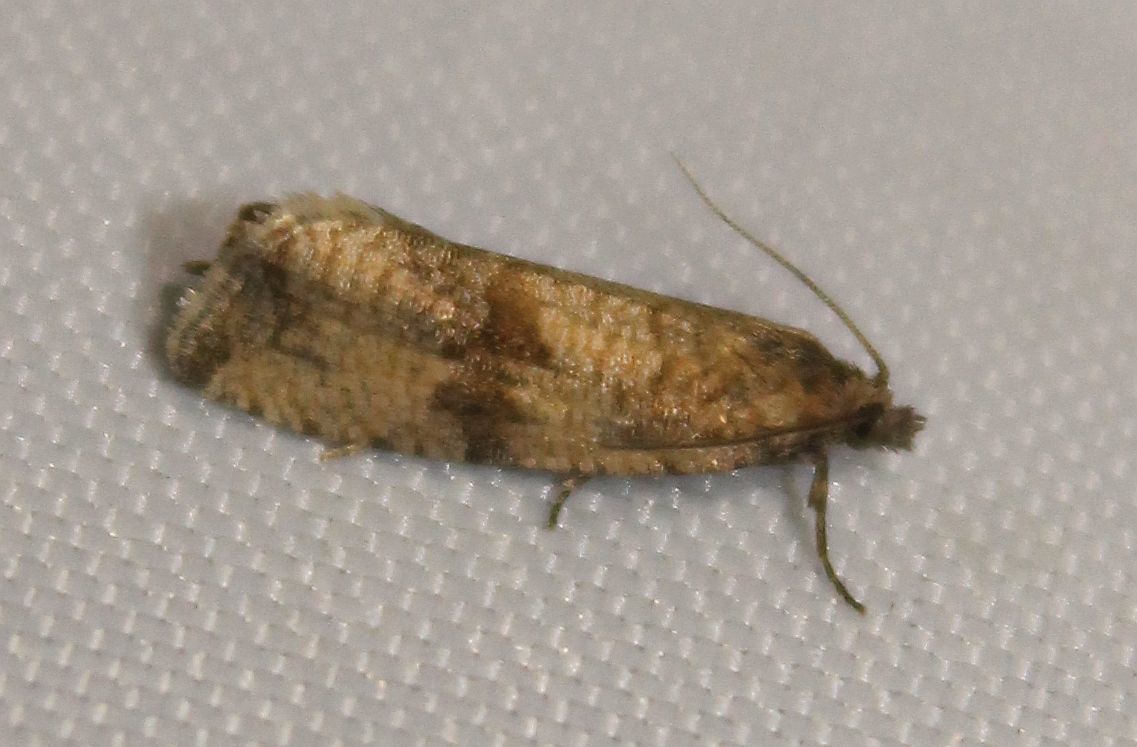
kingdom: Animalia
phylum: Arthropoda
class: Insecta
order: Lepidoptera
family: Tortricidae
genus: Celypha
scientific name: Celypha striana
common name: Barred marble
